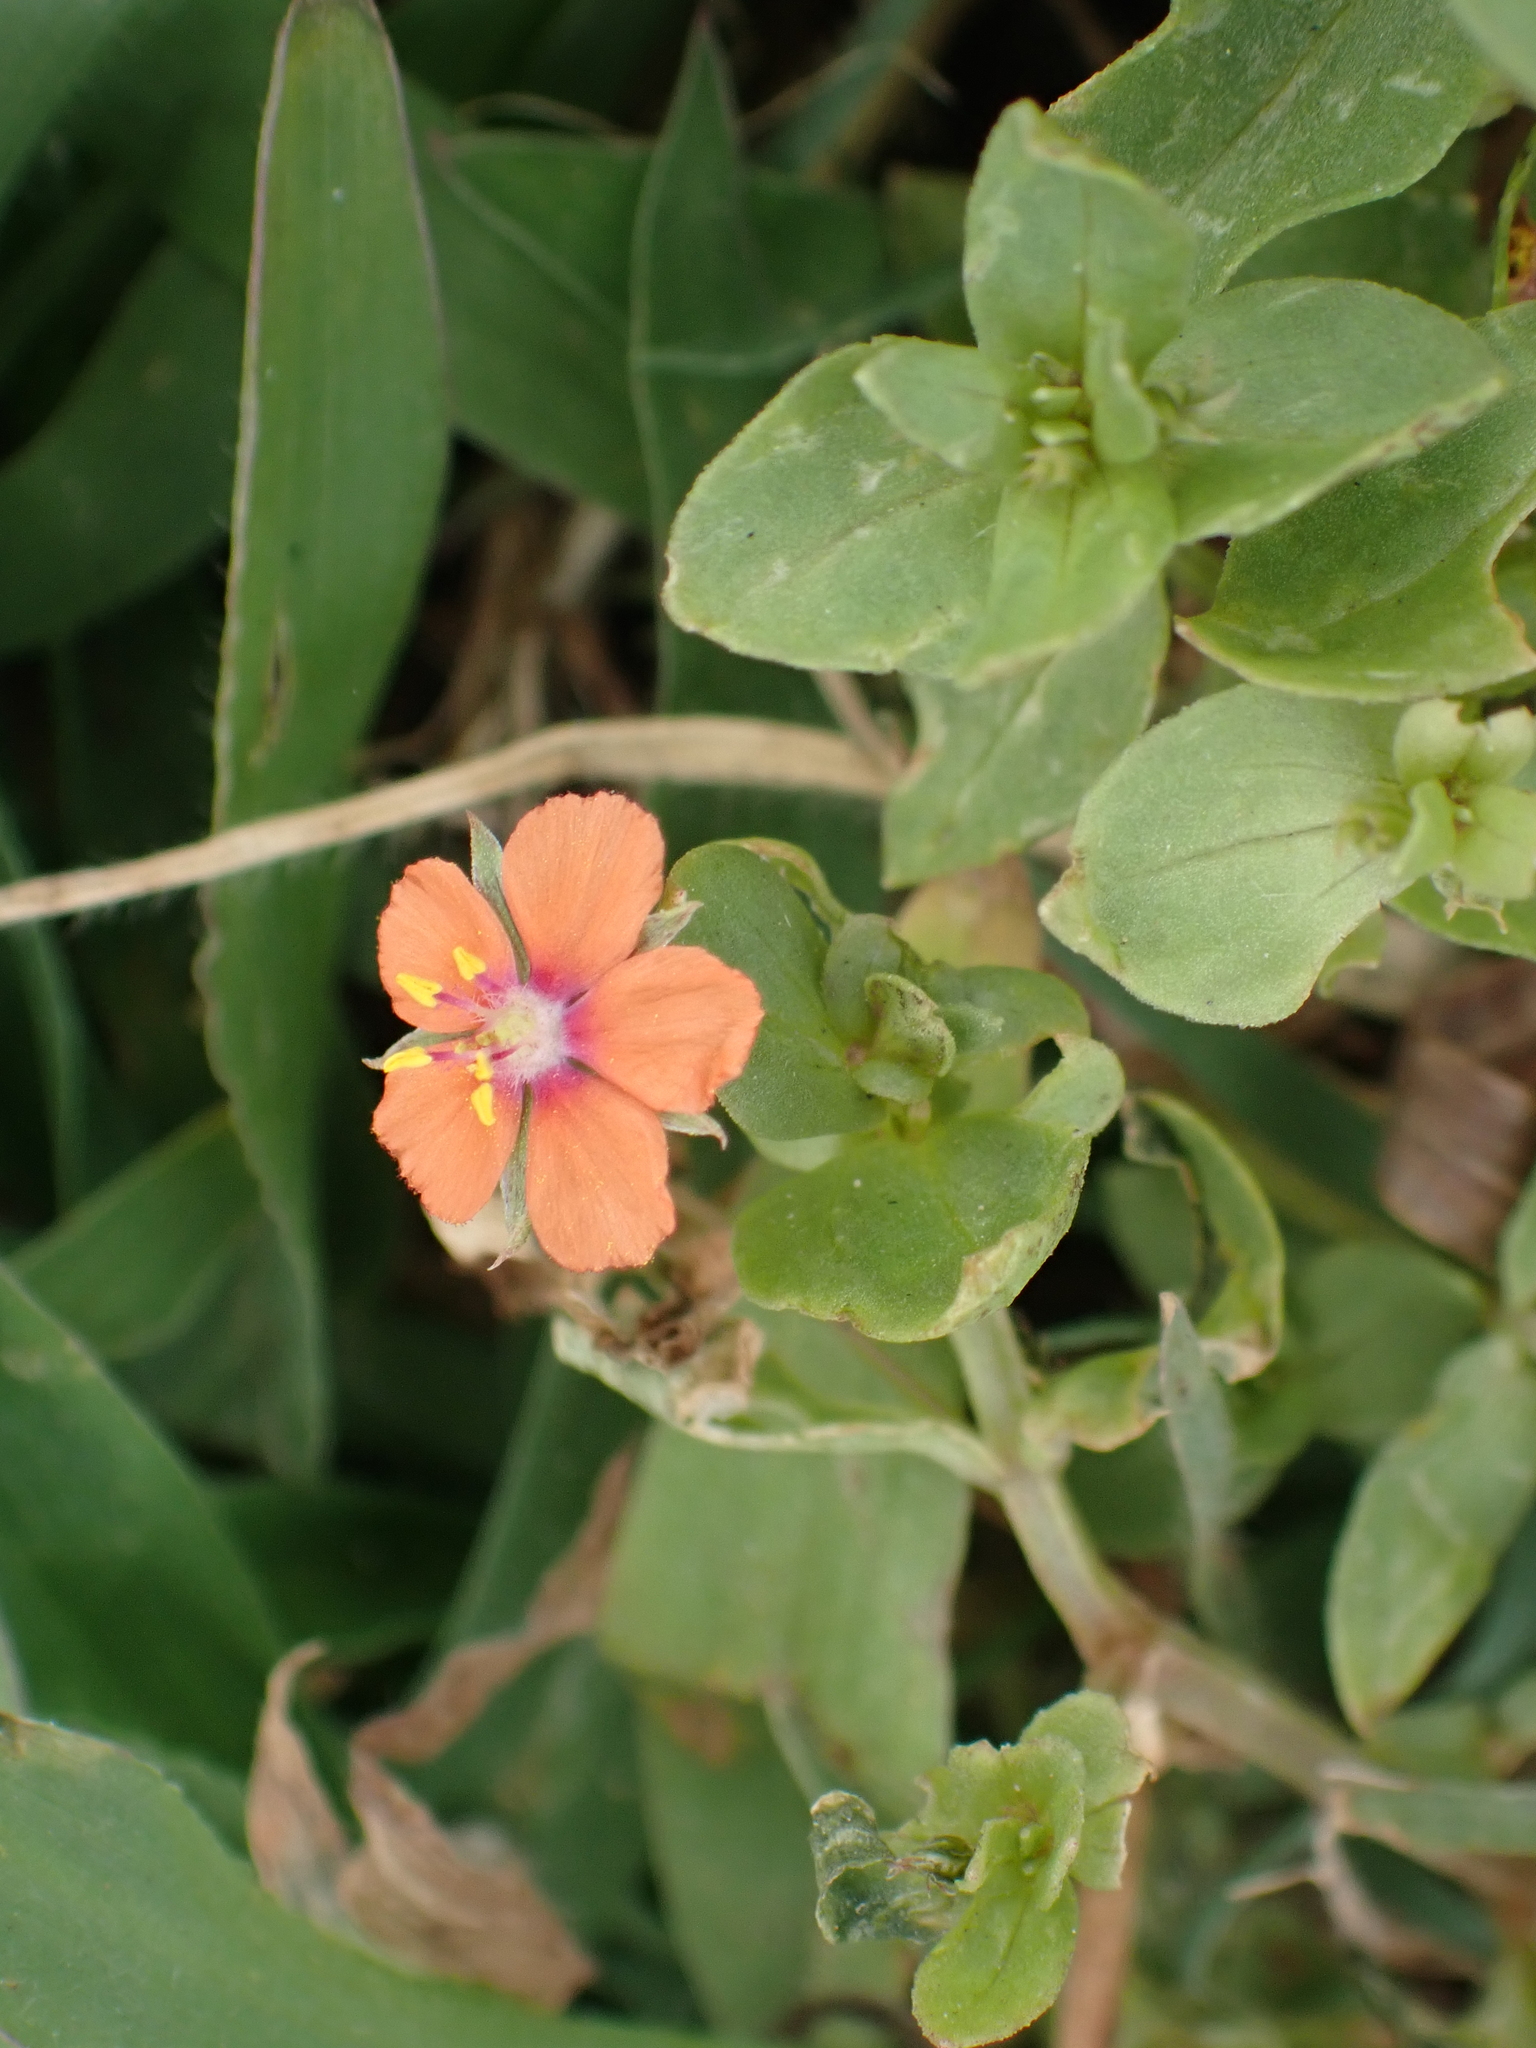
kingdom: Plantae
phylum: Tracheophyta
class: Magnoliopsida
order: Ericales
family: Primulaceae
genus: Lysimachia
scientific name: Lysimachia arvensis
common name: Scarlet pimpernel
